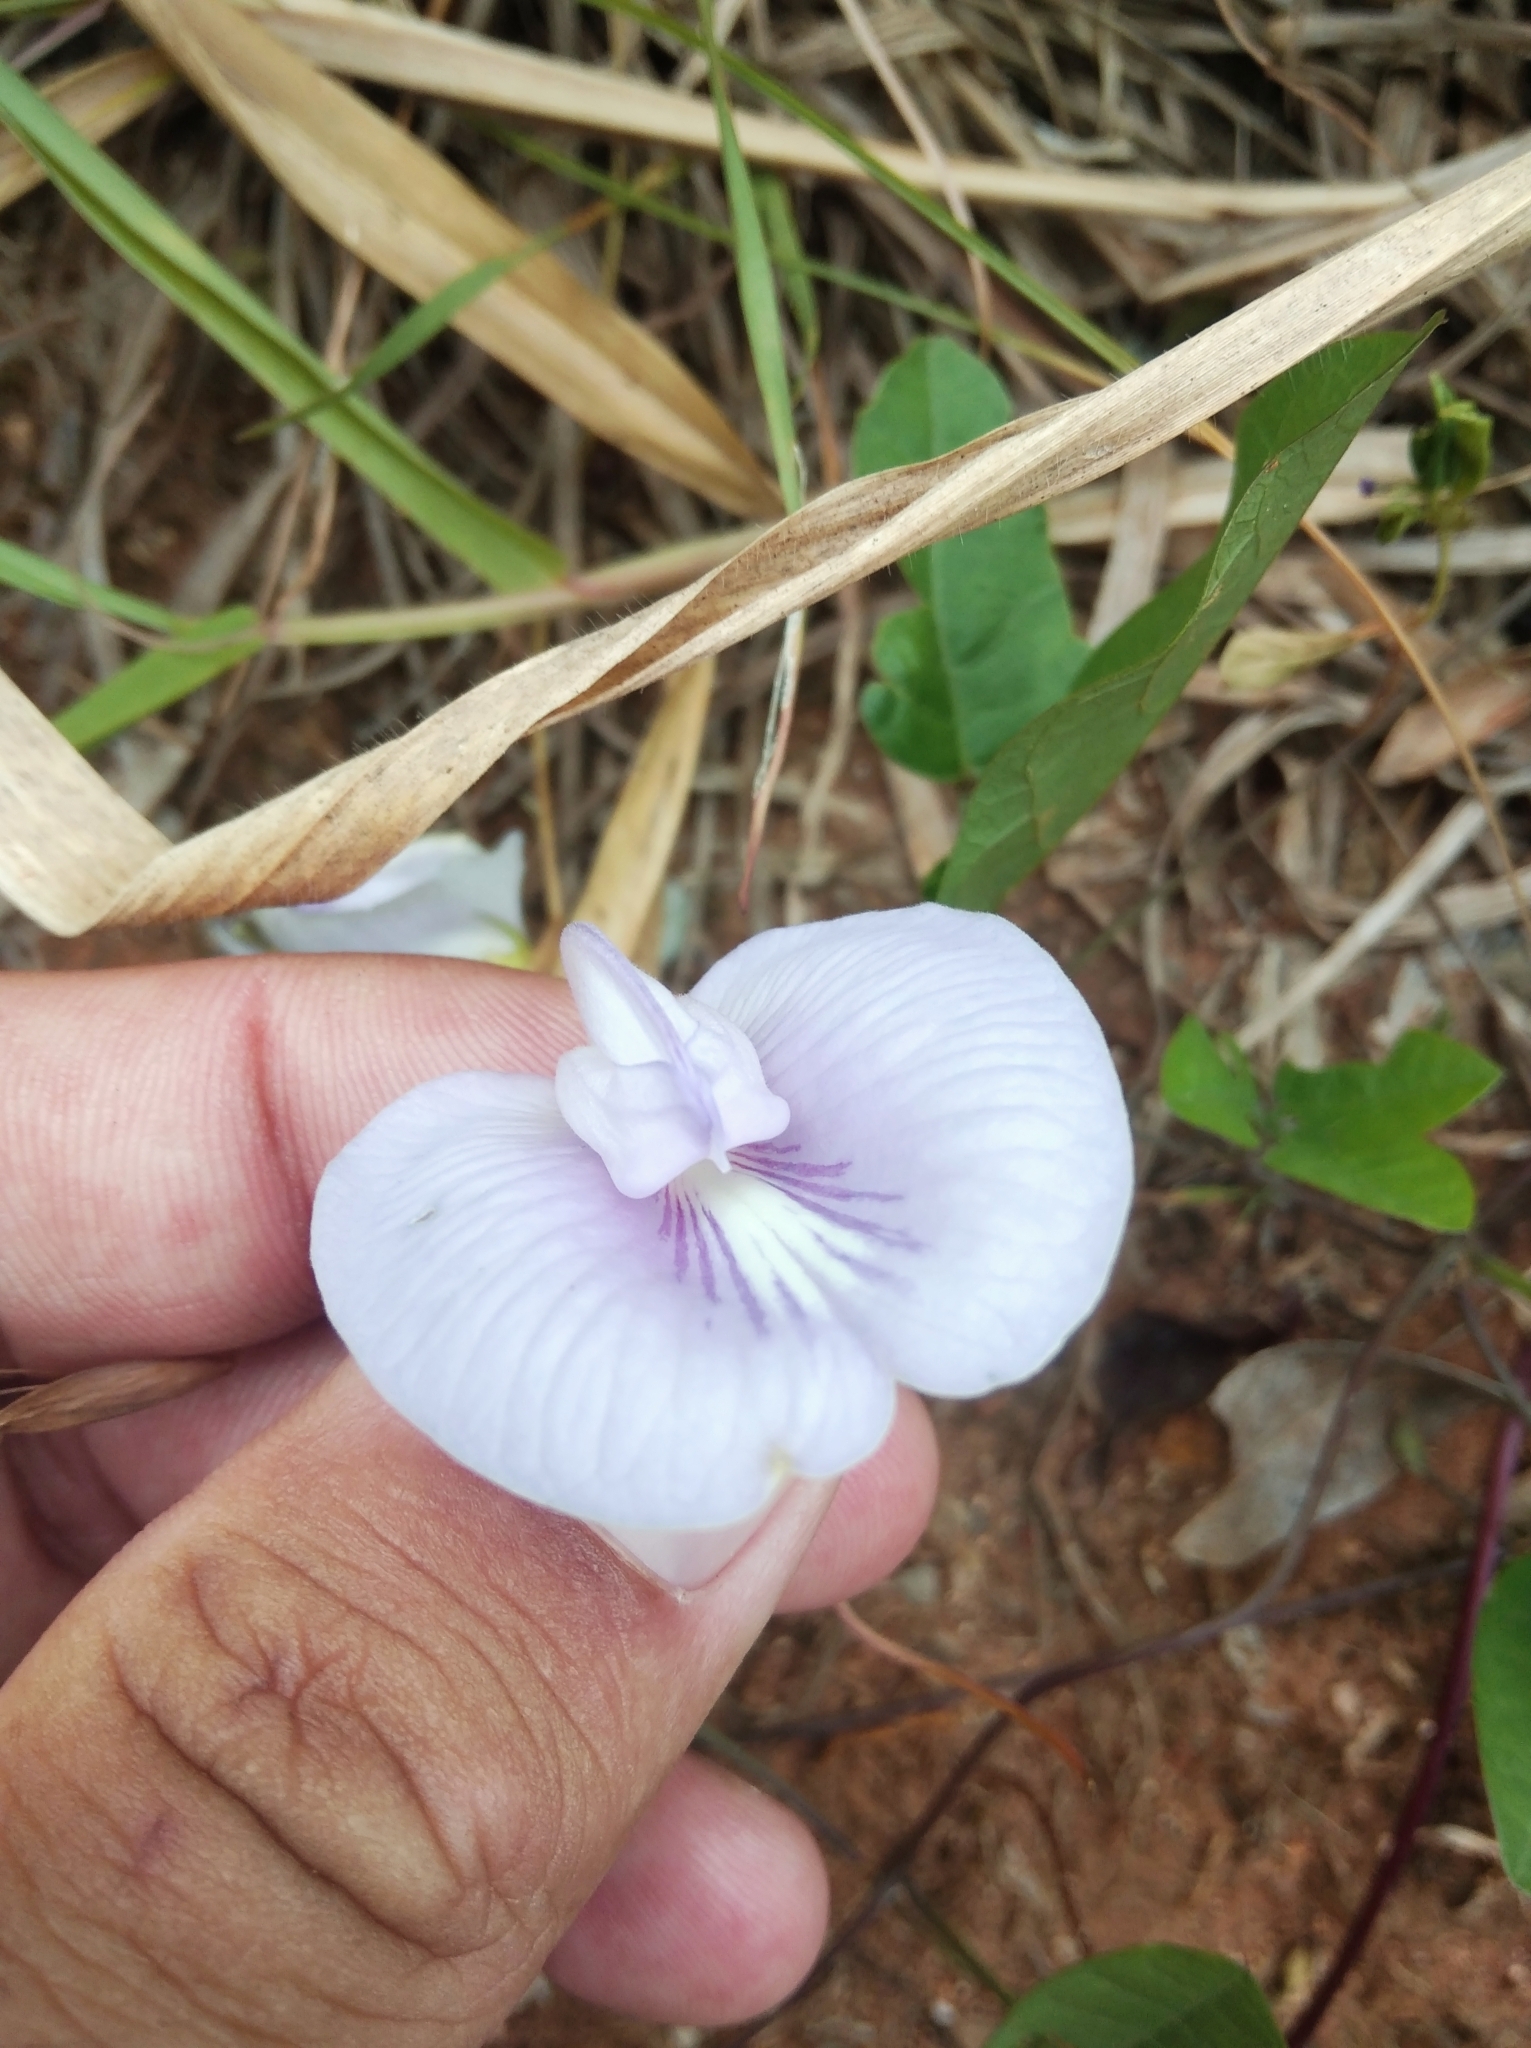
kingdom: Plantae
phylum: Tracheophyta
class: Magnoliopsida
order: Fabales
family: Fabaceae
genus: Centrosema
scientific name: Centrosema virginianum
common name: Butterfly-pea
